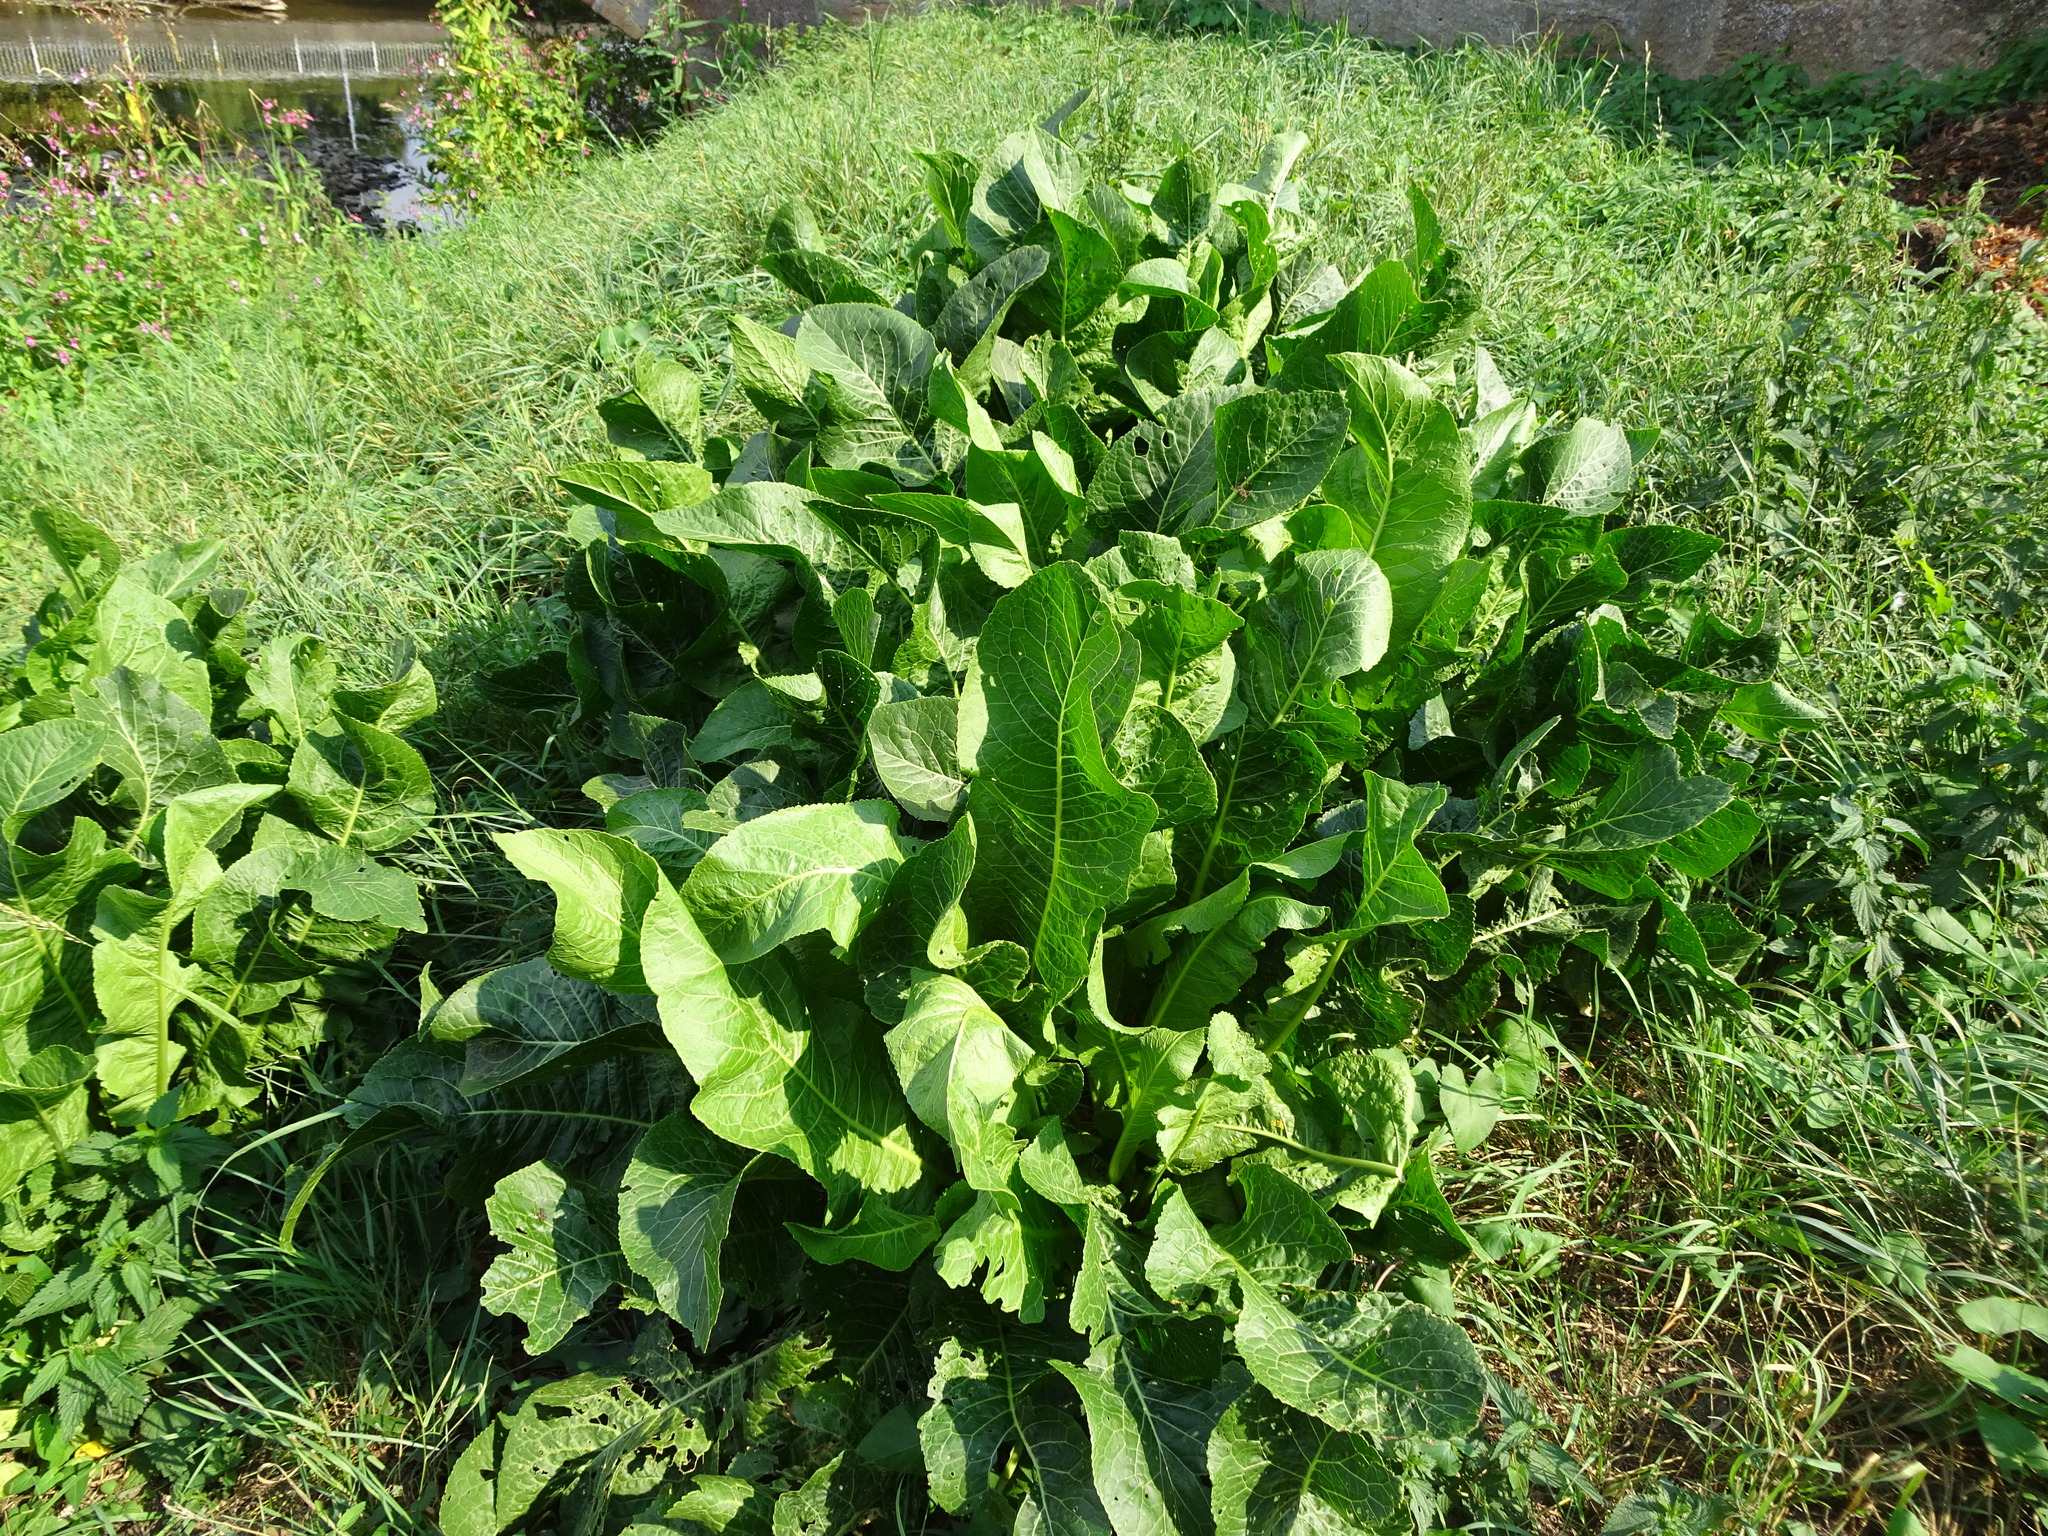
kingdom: Plantae
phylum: Tracheophyta
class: Magnoliopsida
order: Brassicales
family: Brassicaceae
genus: Armoracia
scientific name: Armoracia rusticana
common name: Horseradish
